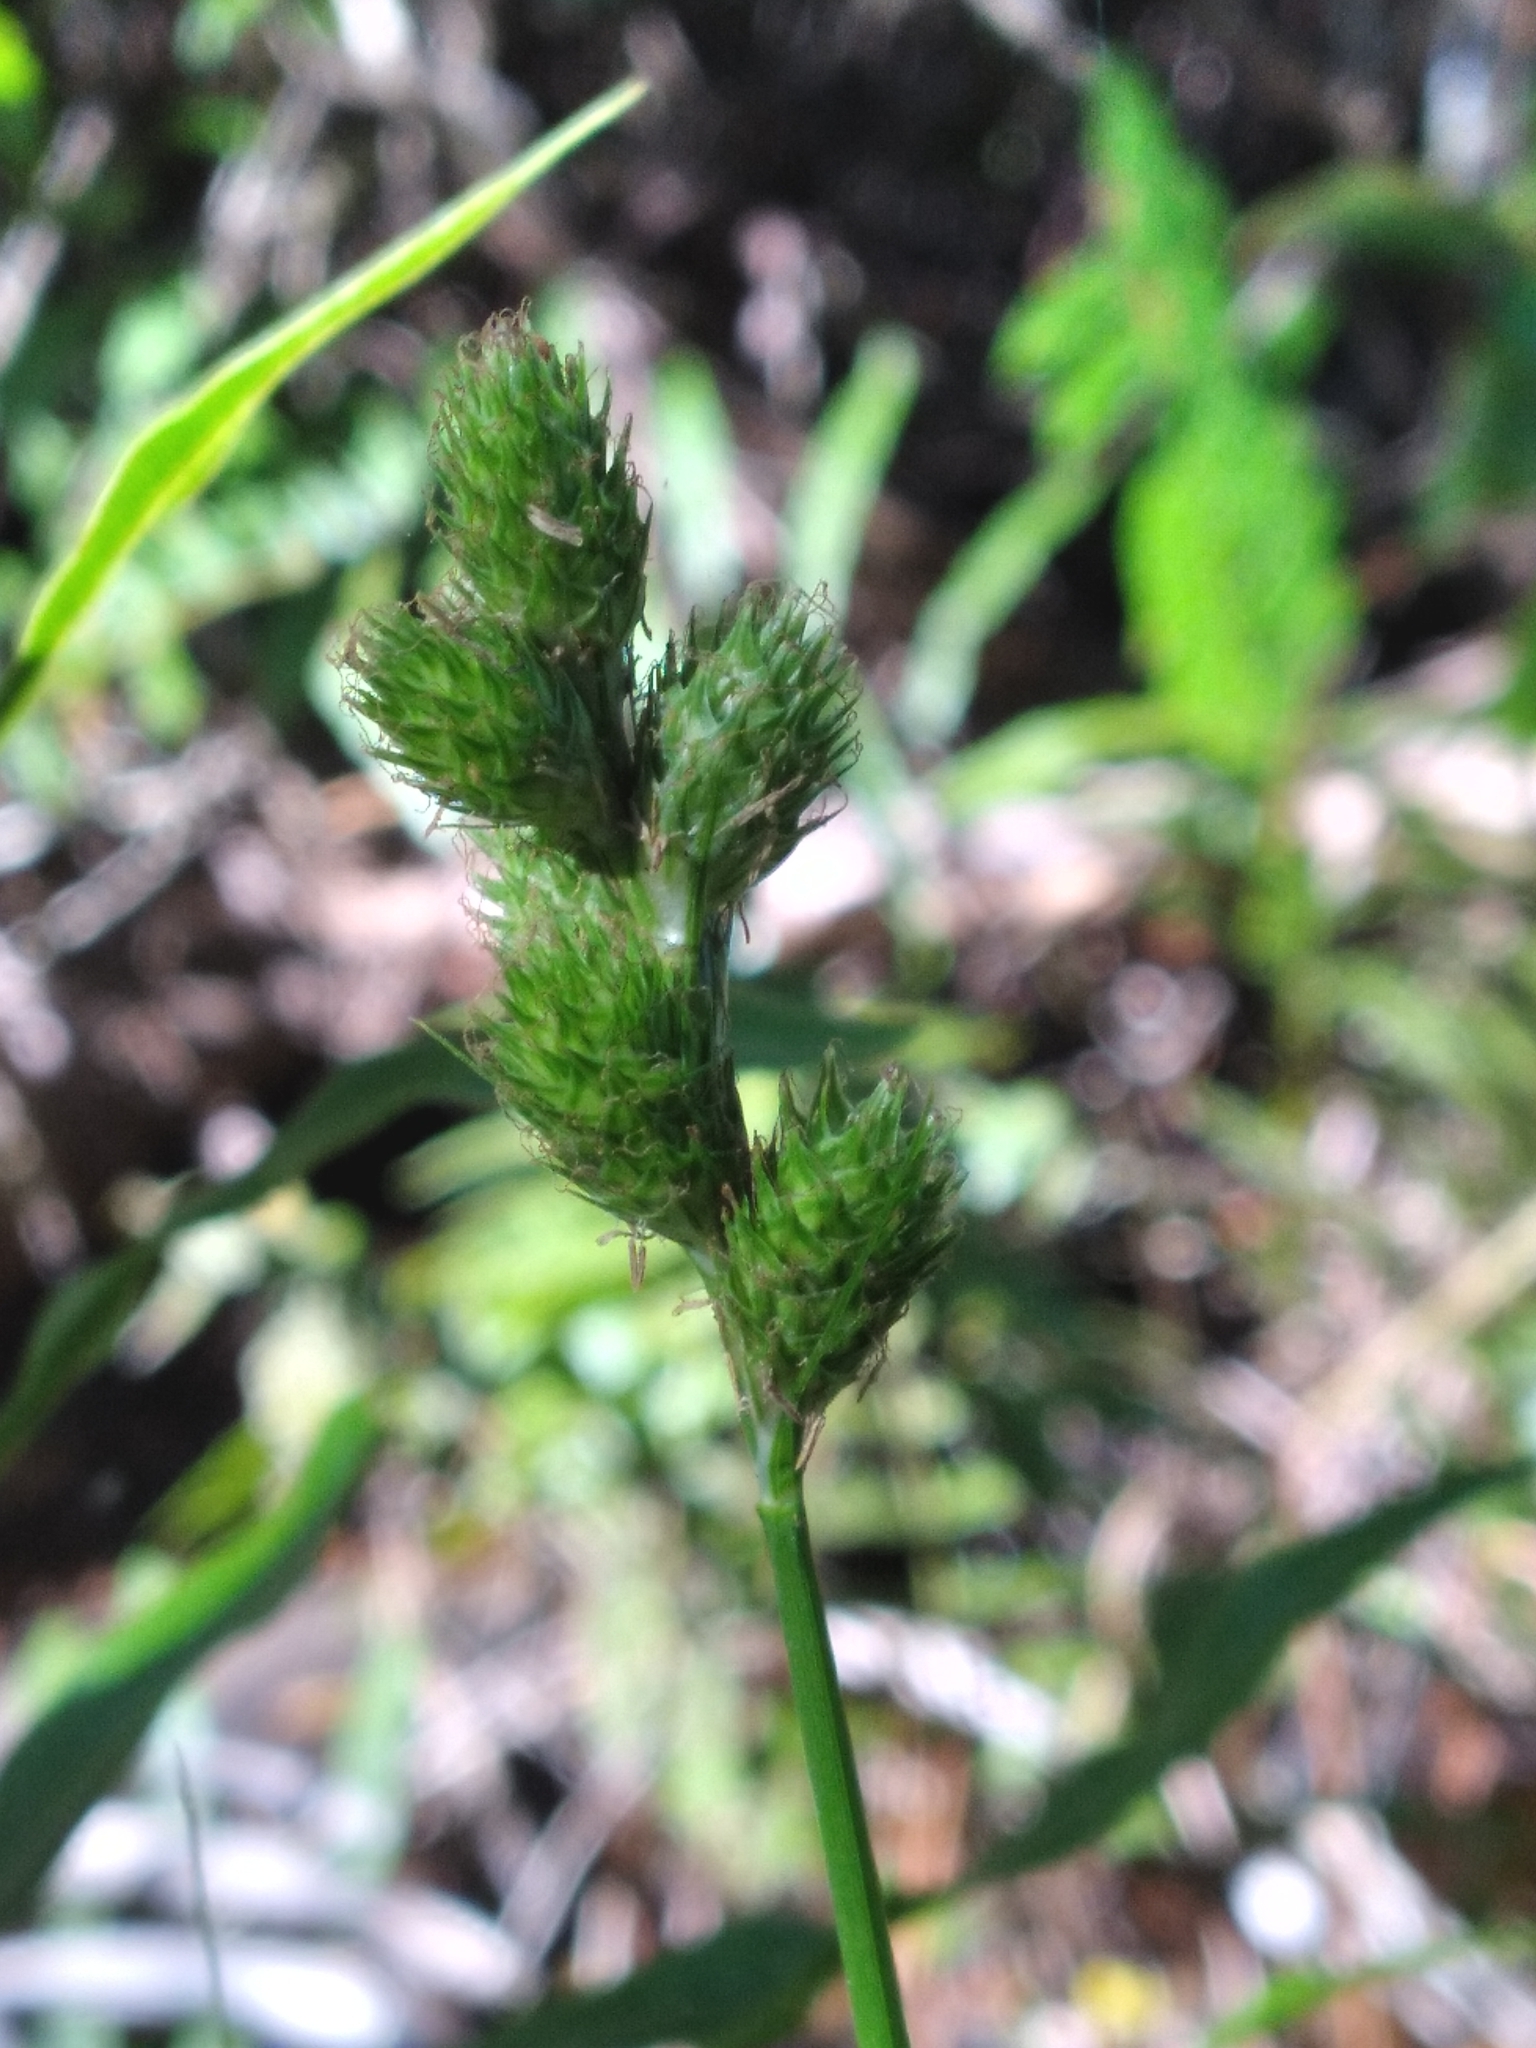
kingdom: Plantae
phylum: Tracheophyta
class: Liliopsida
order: Poales
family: Cyperaceae
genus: Carex
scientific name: Carex vexans
